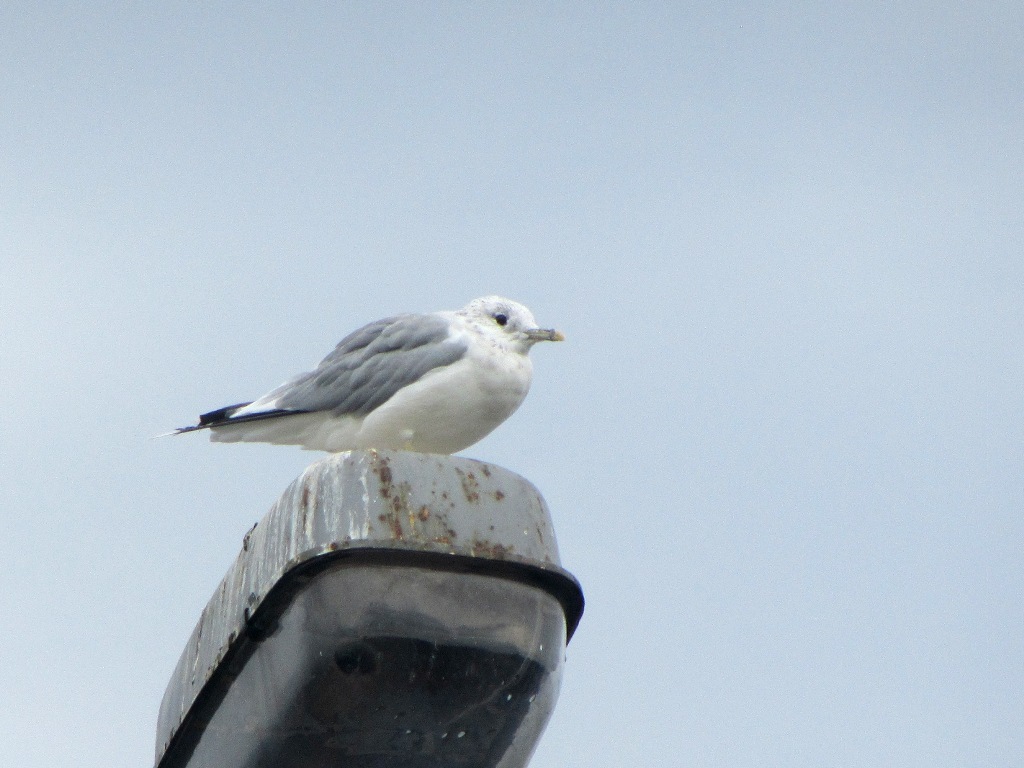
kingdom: Animalia
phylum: Chordata
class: Aves
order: Charadriiformes
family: Laridae
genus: Larus
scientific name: Larus canus
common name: Mew gull
